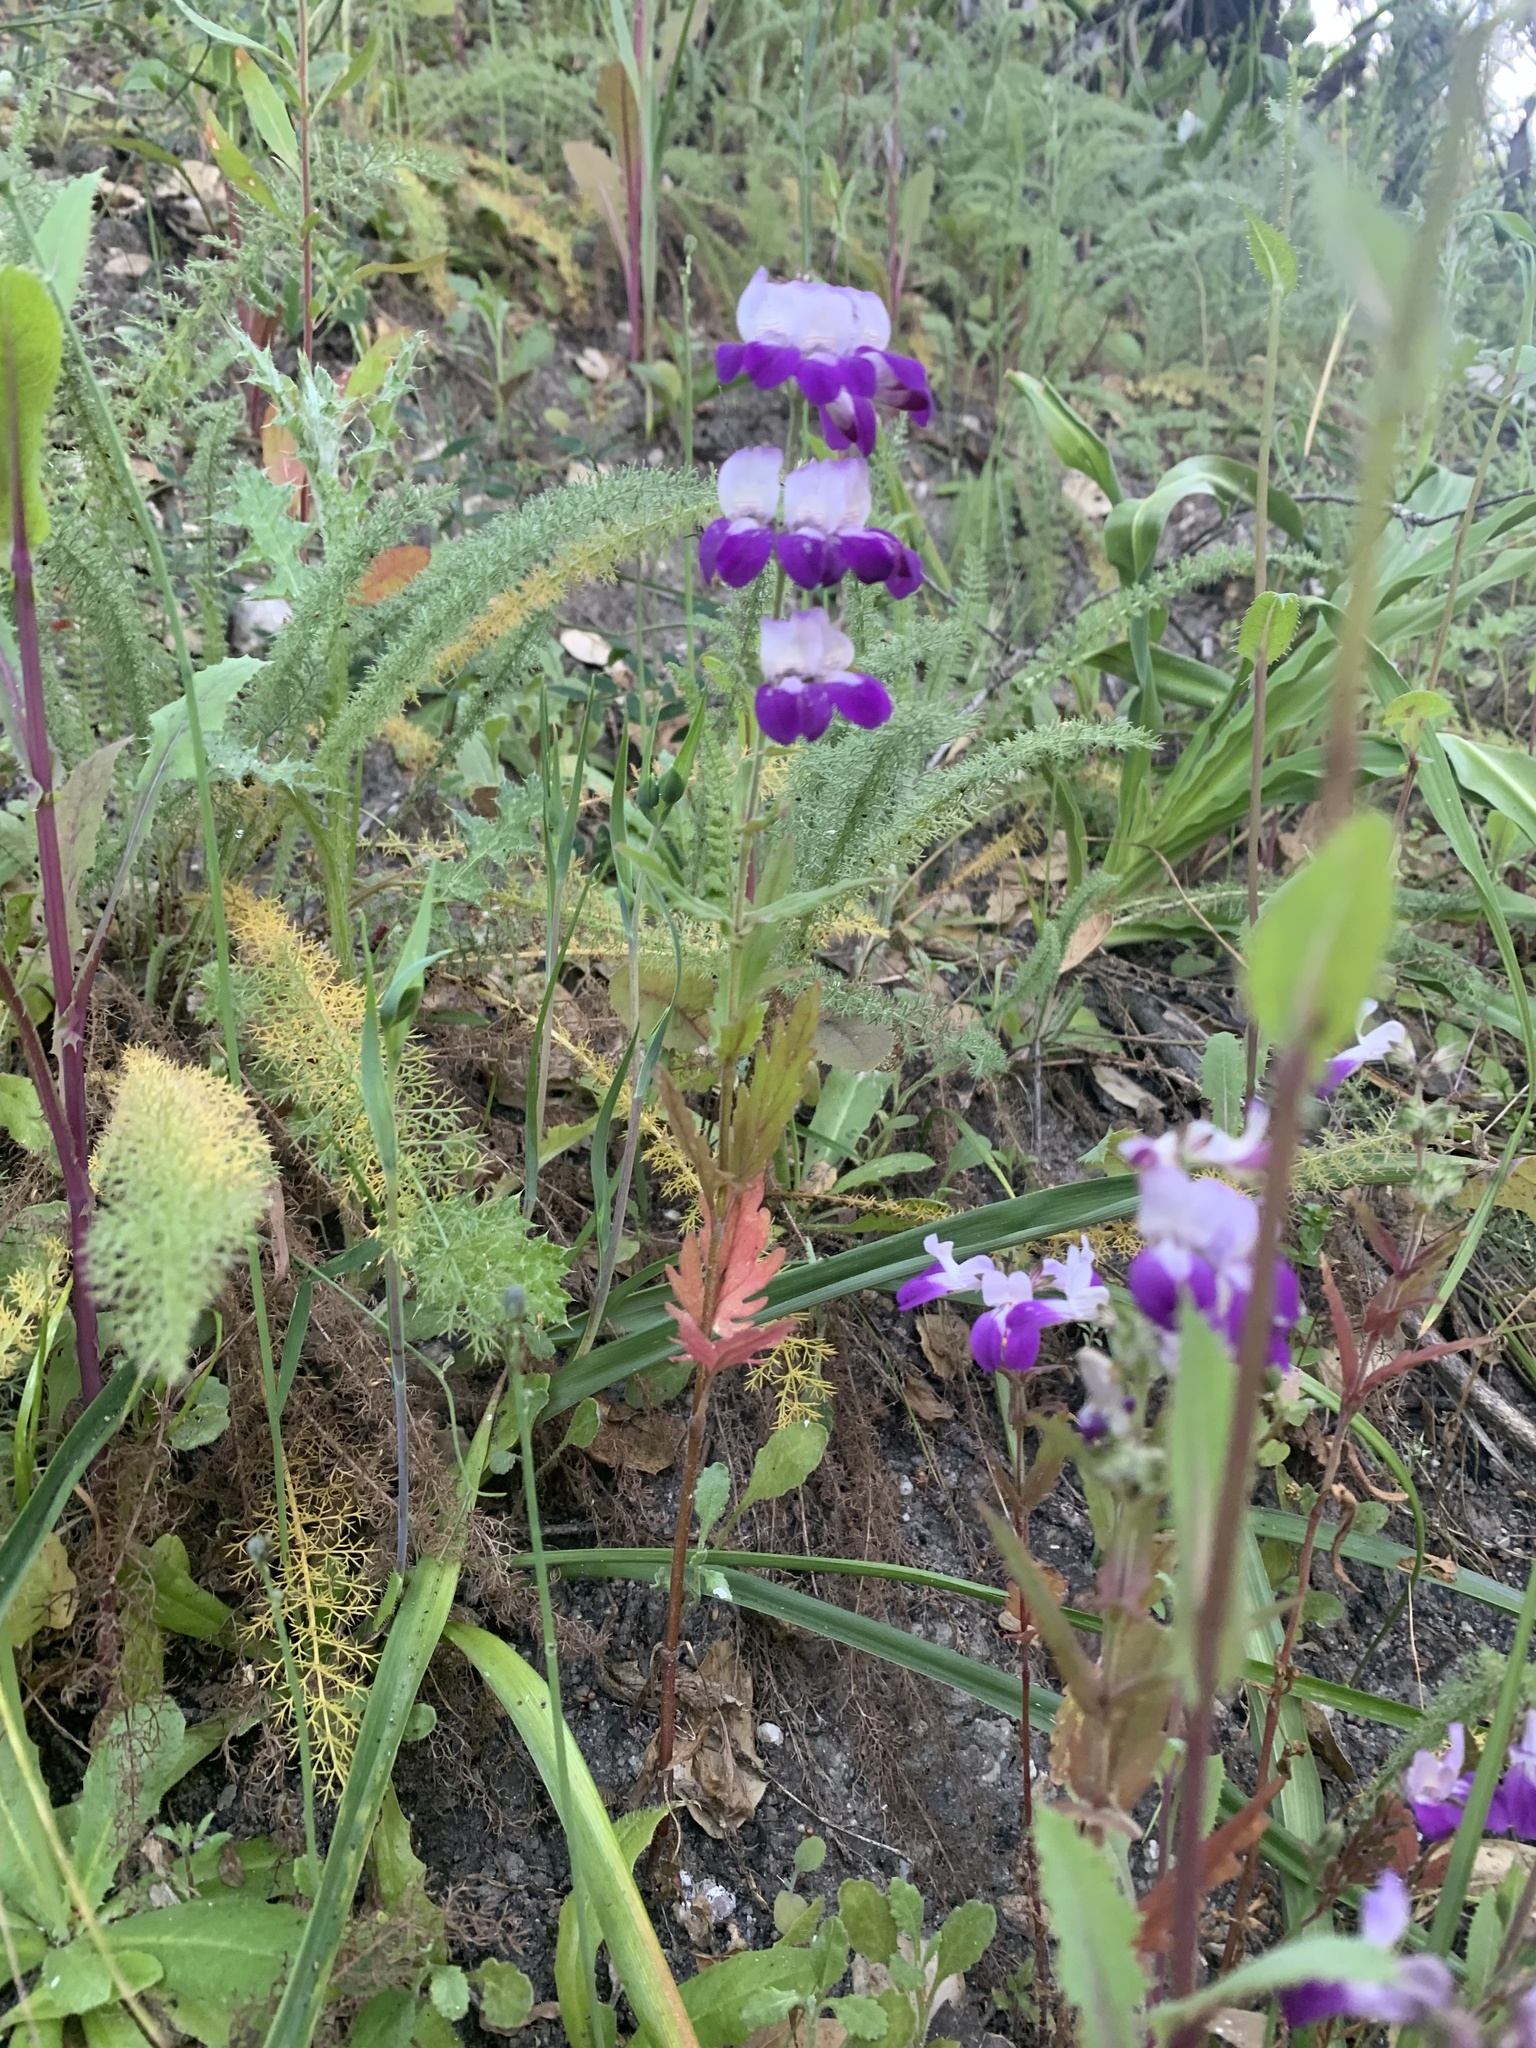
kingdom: Plantae
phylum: Tracheophyta
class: Magnoliopsida
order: Lamiales
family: Plantaginaceae
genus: Collinsia
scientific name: Collinsia heterophylla
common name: Chinese-houses
